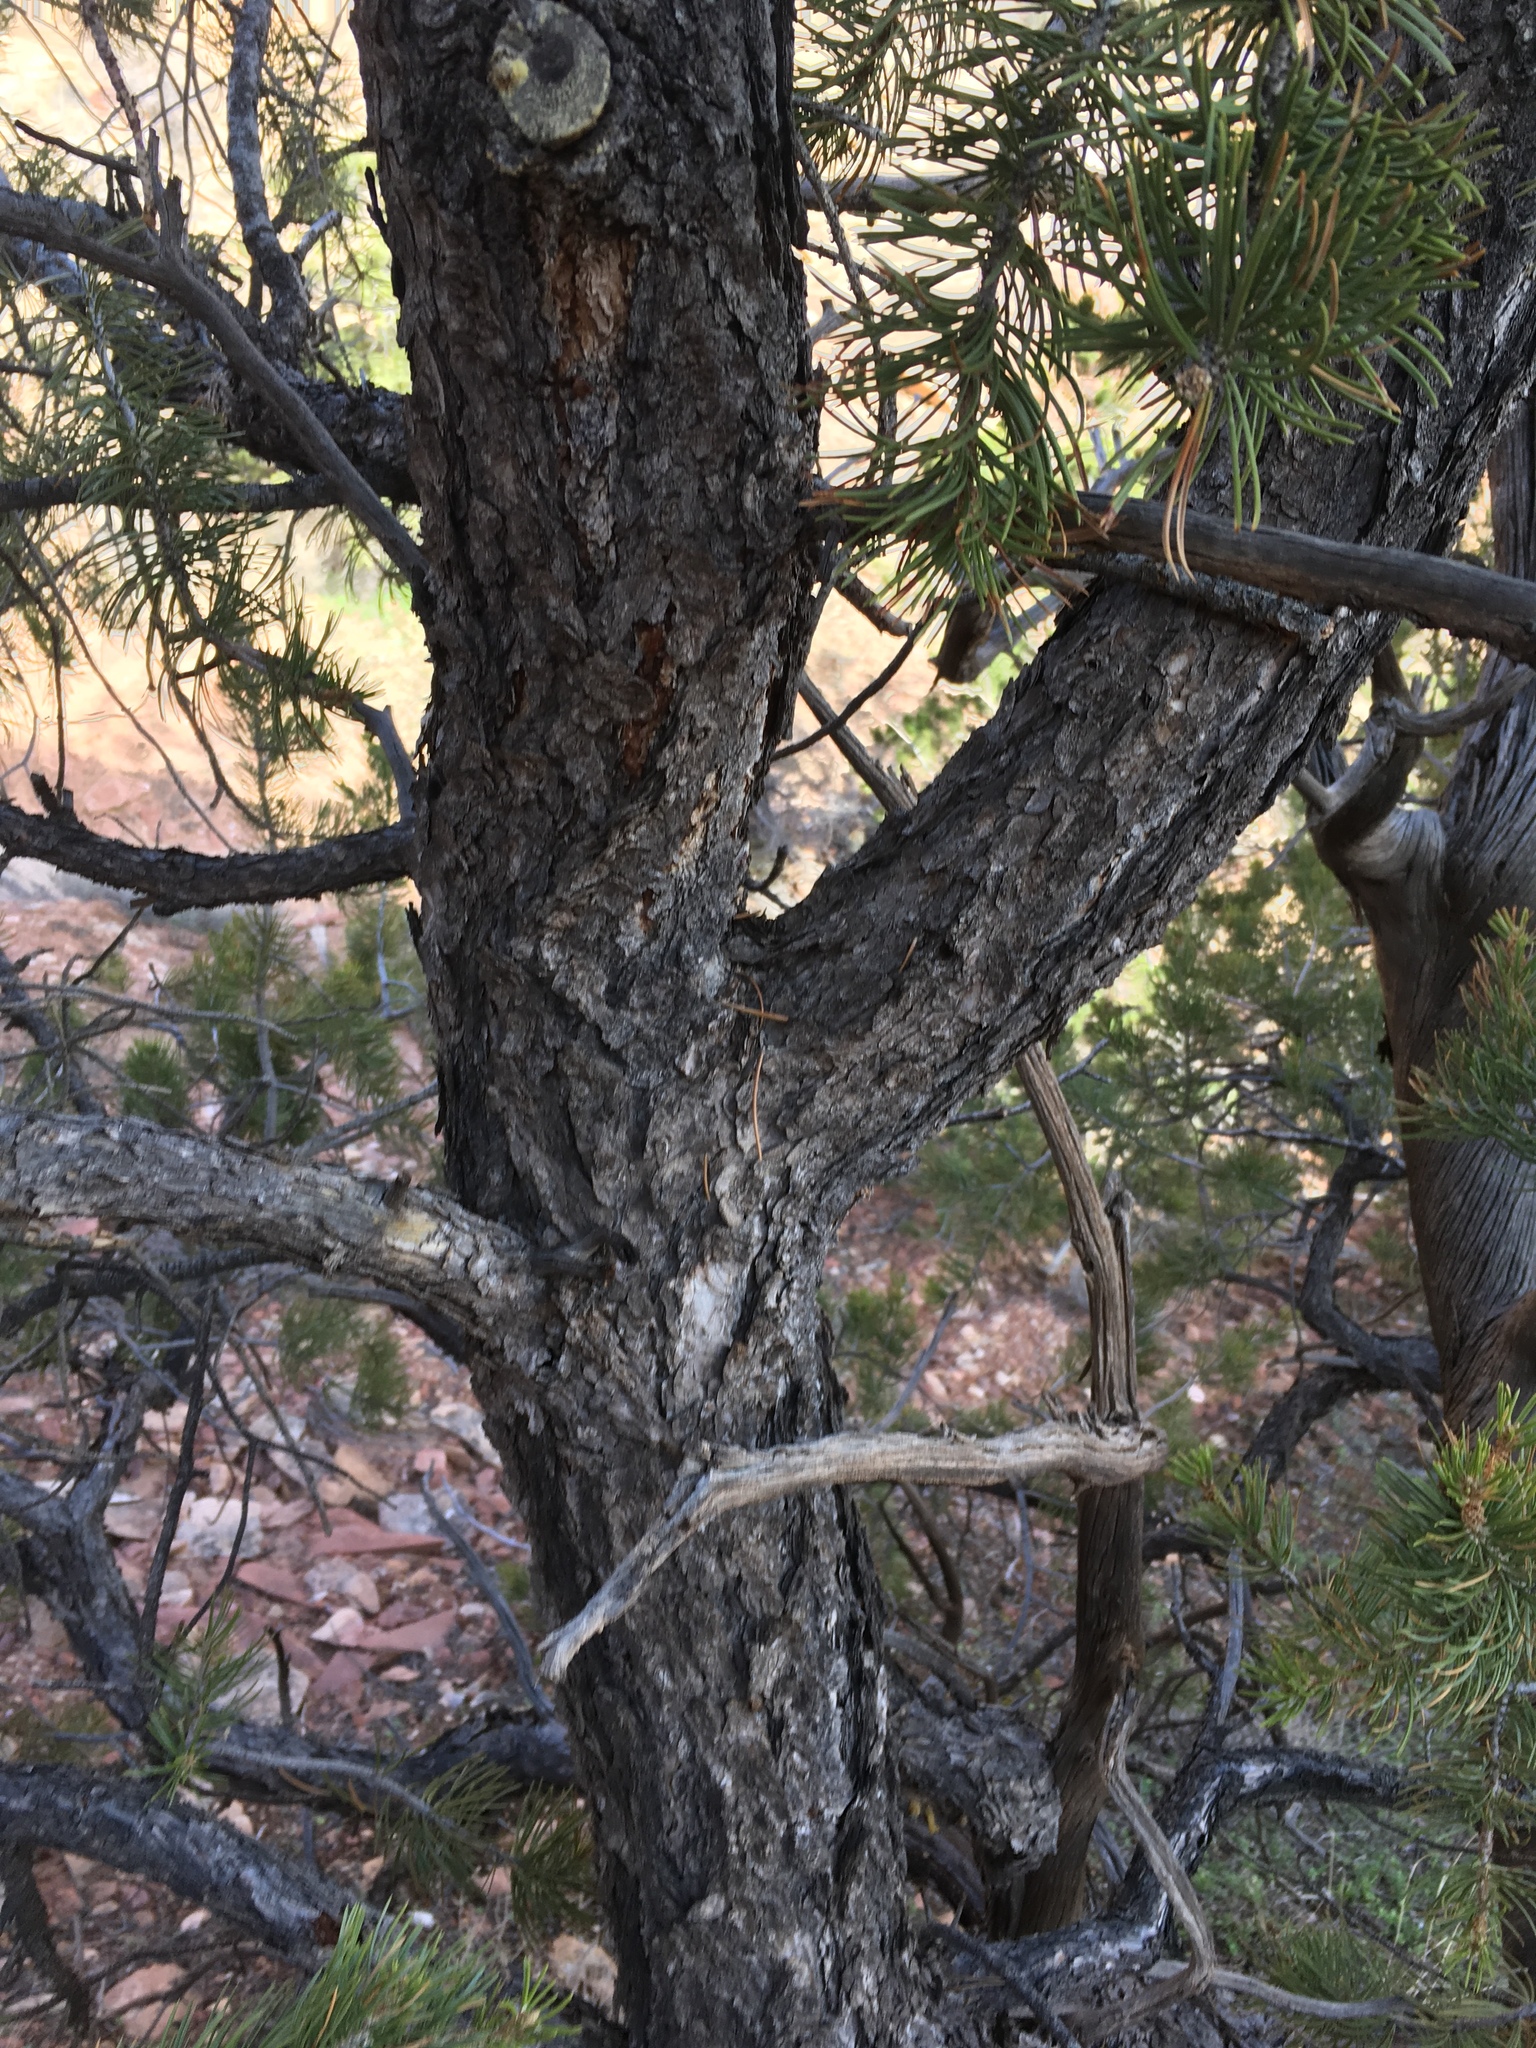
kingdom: Plantae
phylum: Tracheophyta
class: Pinopsida
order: Pinales
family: Pinaceae
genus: Pinus
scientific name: Pinus edulis
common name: Colorado pinyon
